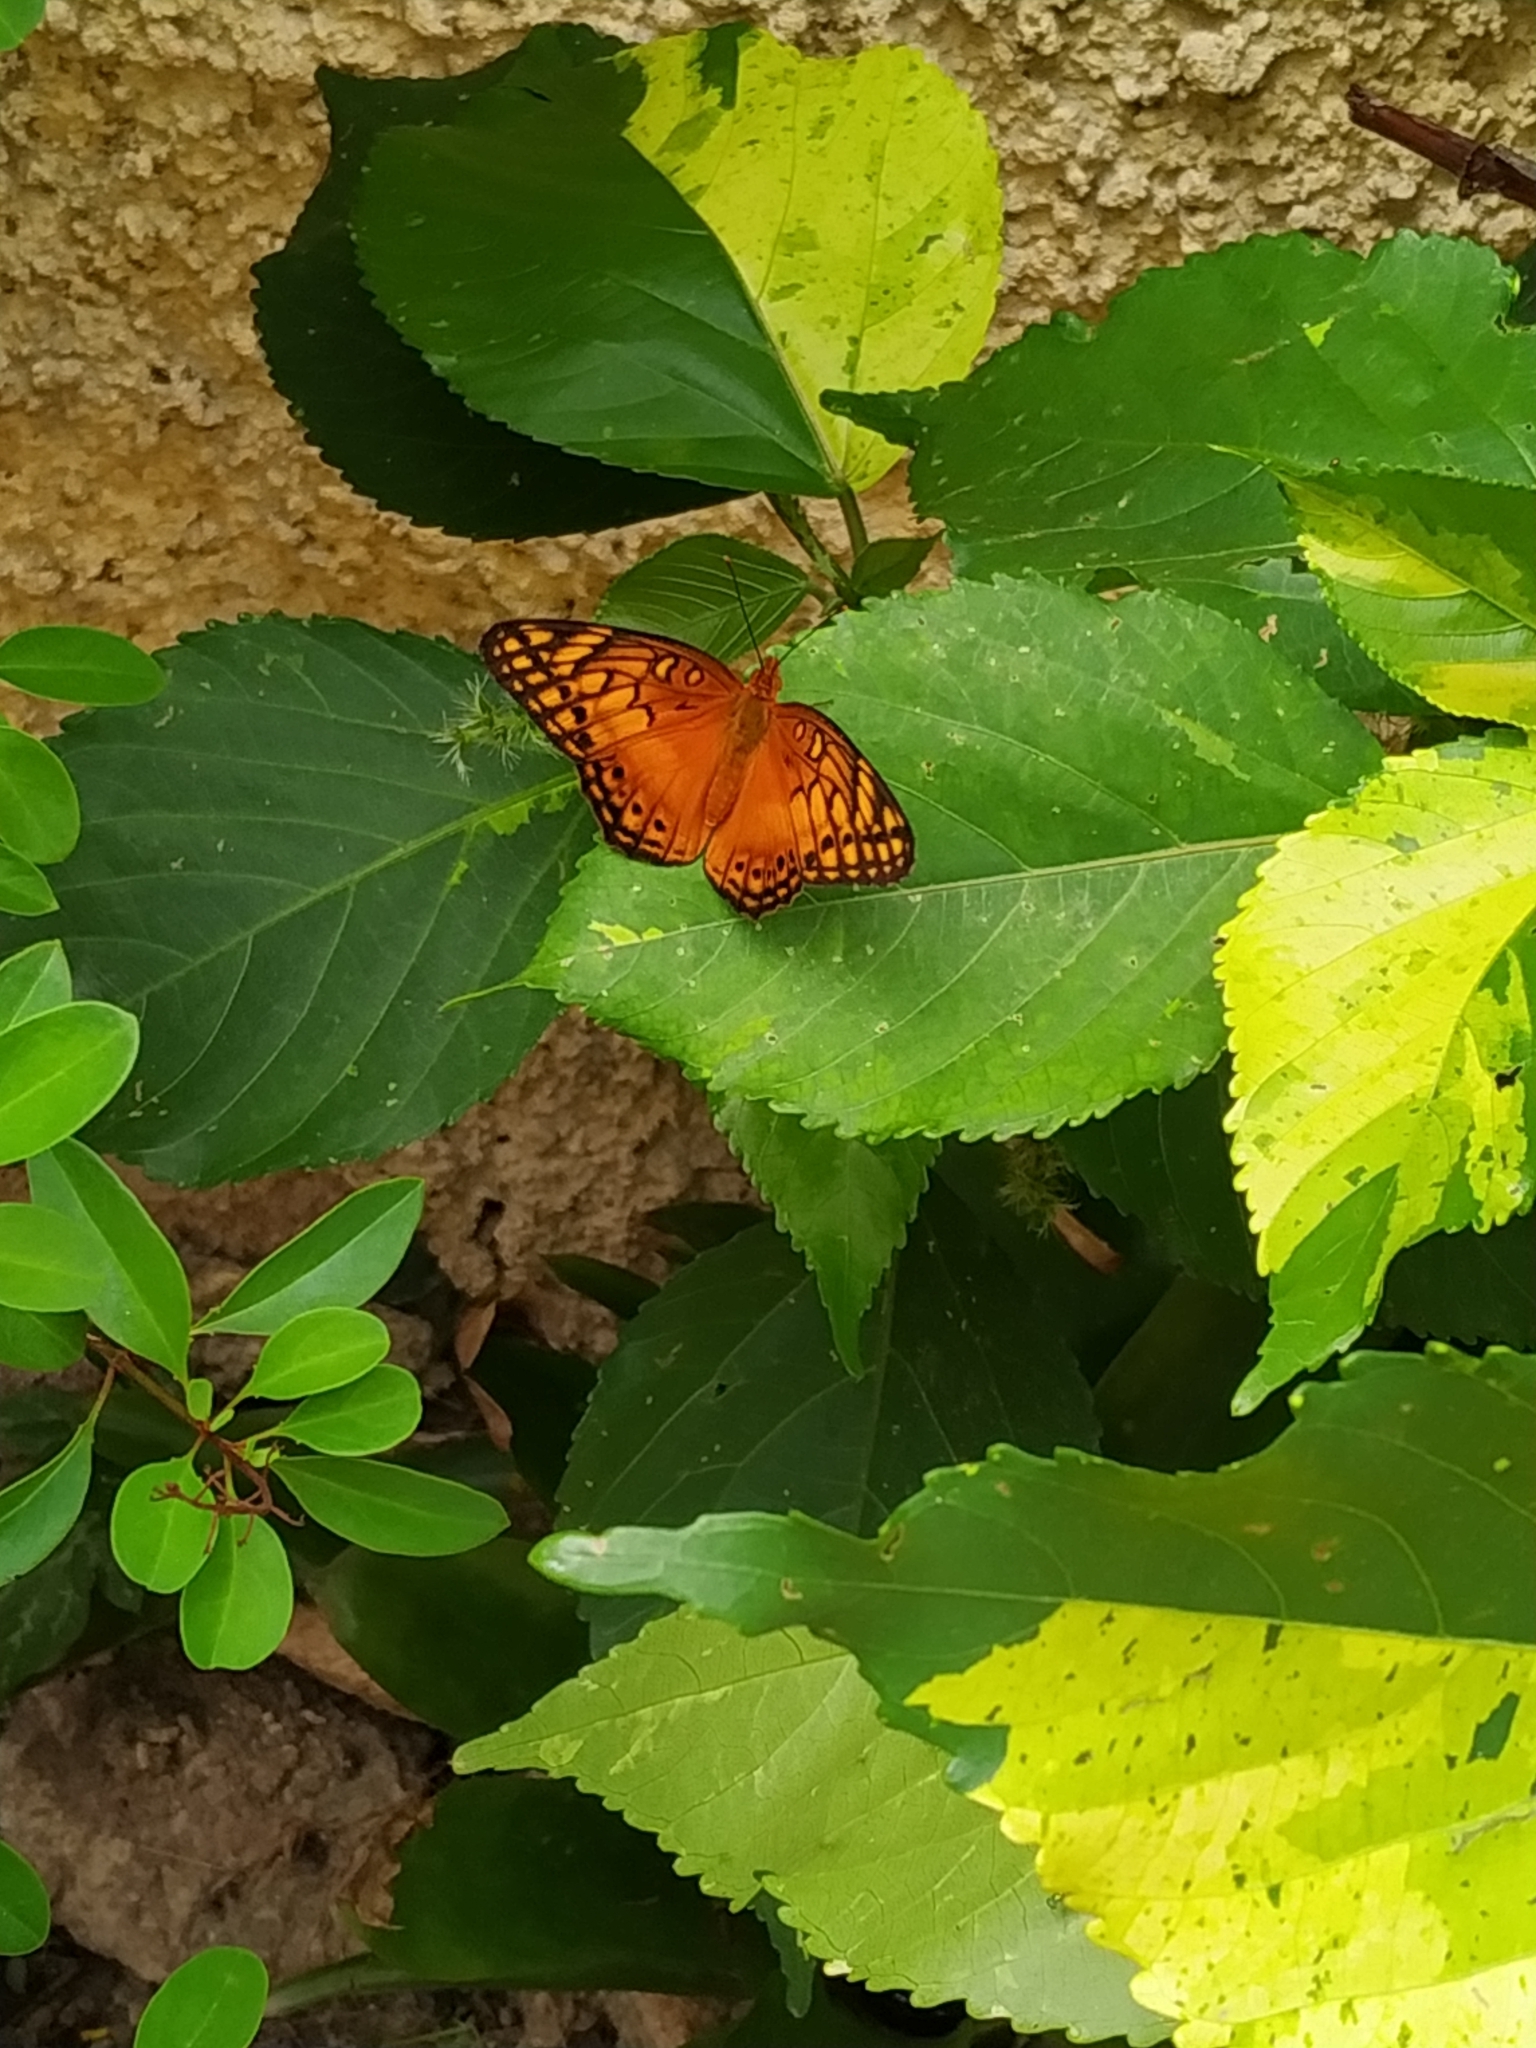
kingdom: Animalia
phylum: Arthropoda
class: Insecta
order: Lepidoptera
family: Nymphalidae
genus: Euptoieta
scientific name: Euptoieta hegesia
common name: Mexican fritillary
